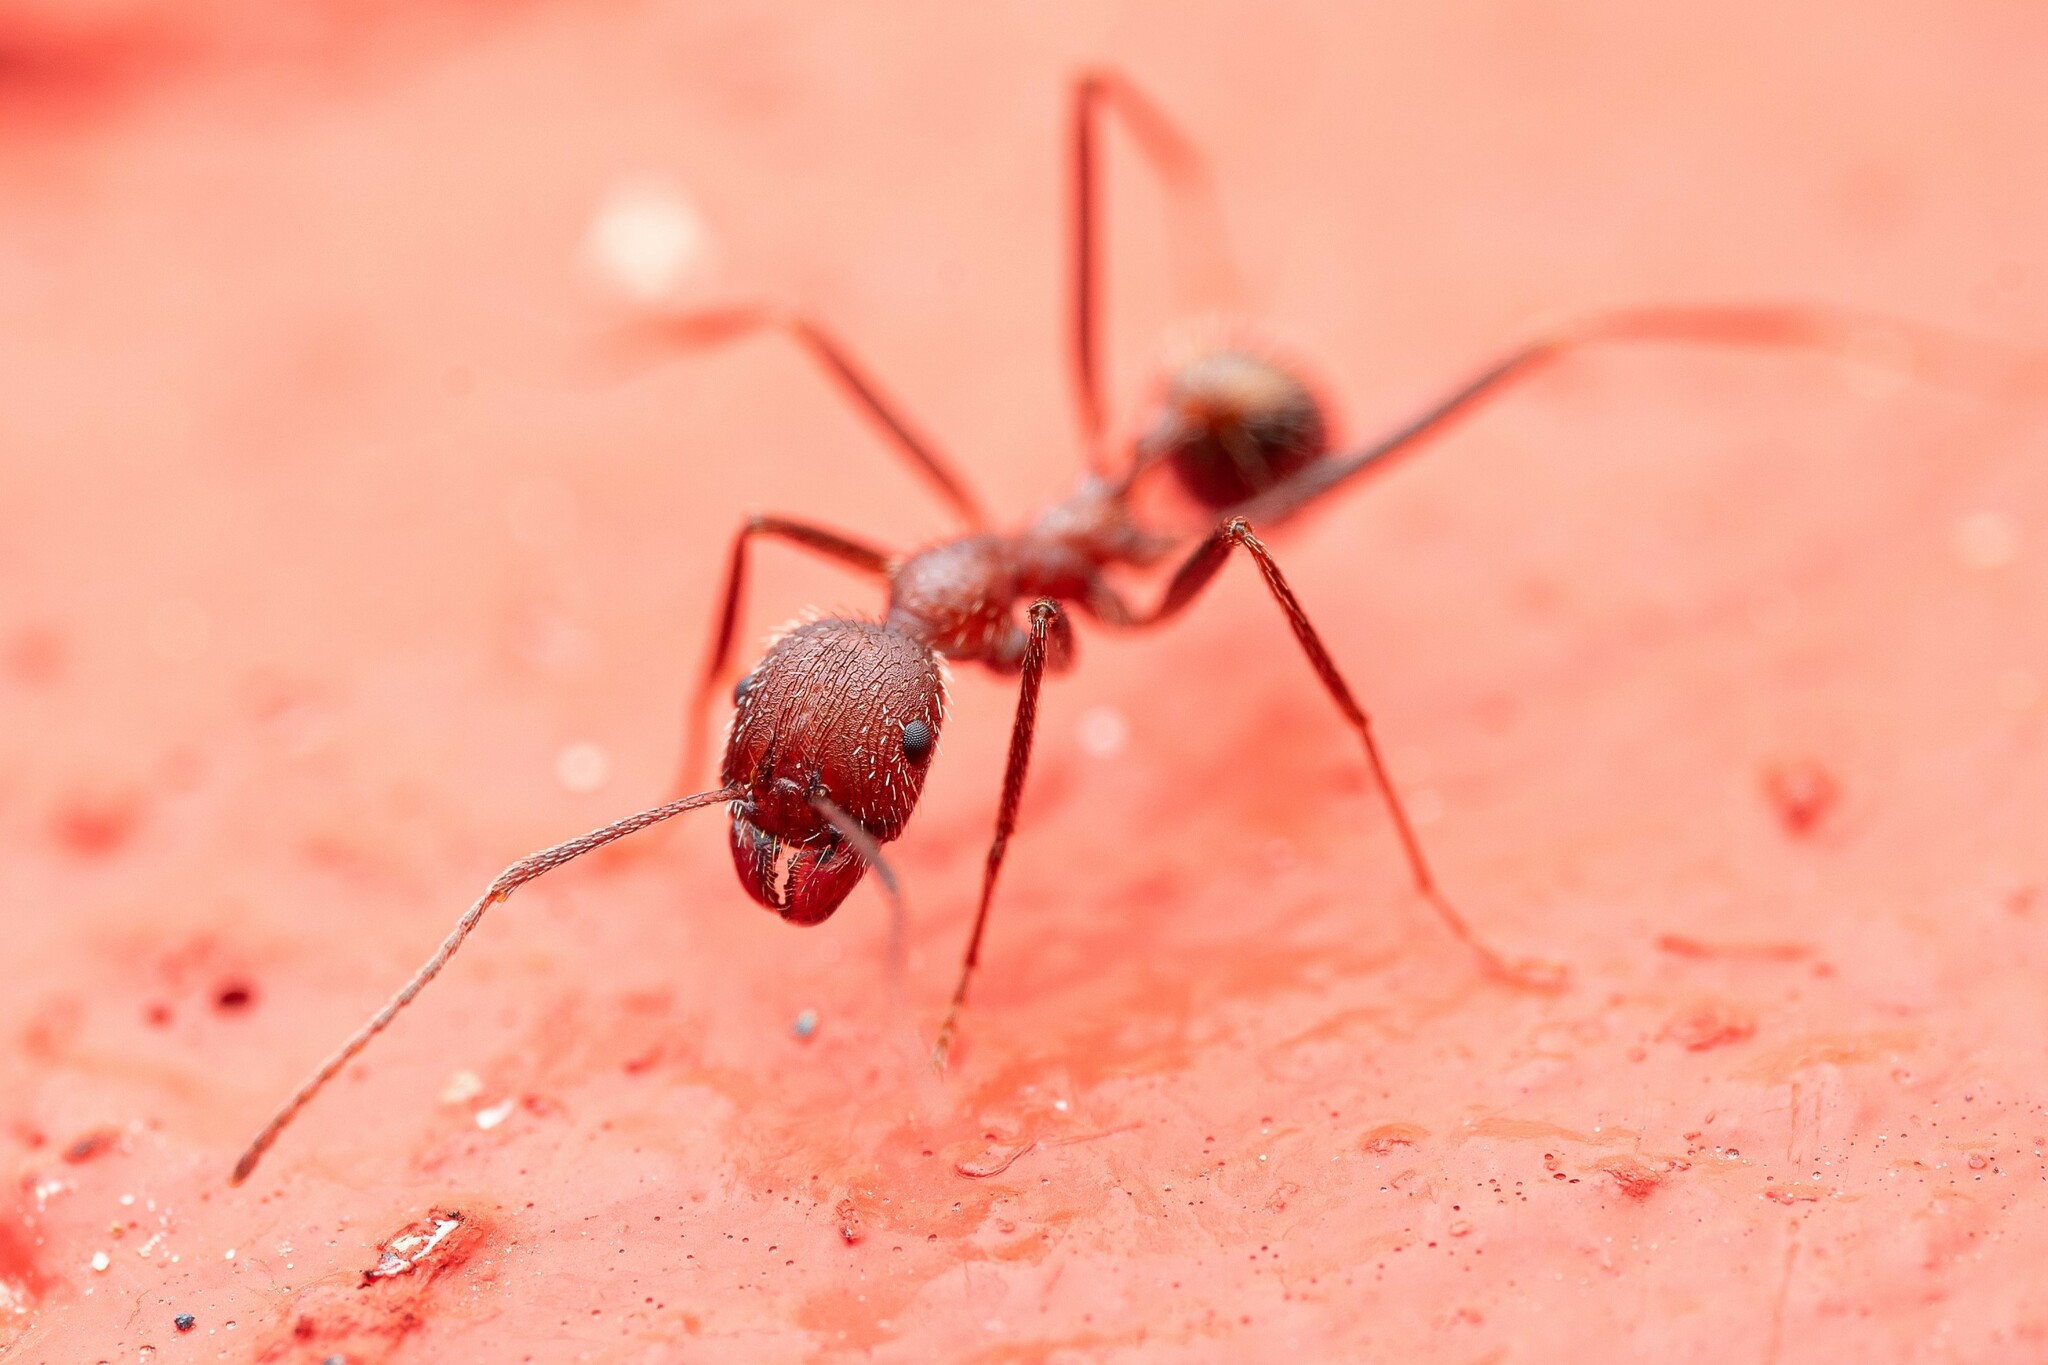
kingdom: Animalia
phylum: Arthropoda
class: Insecta
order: Hymenoptera
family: Formicidae
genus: Novomessor
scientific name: Novomessor albisetosa
